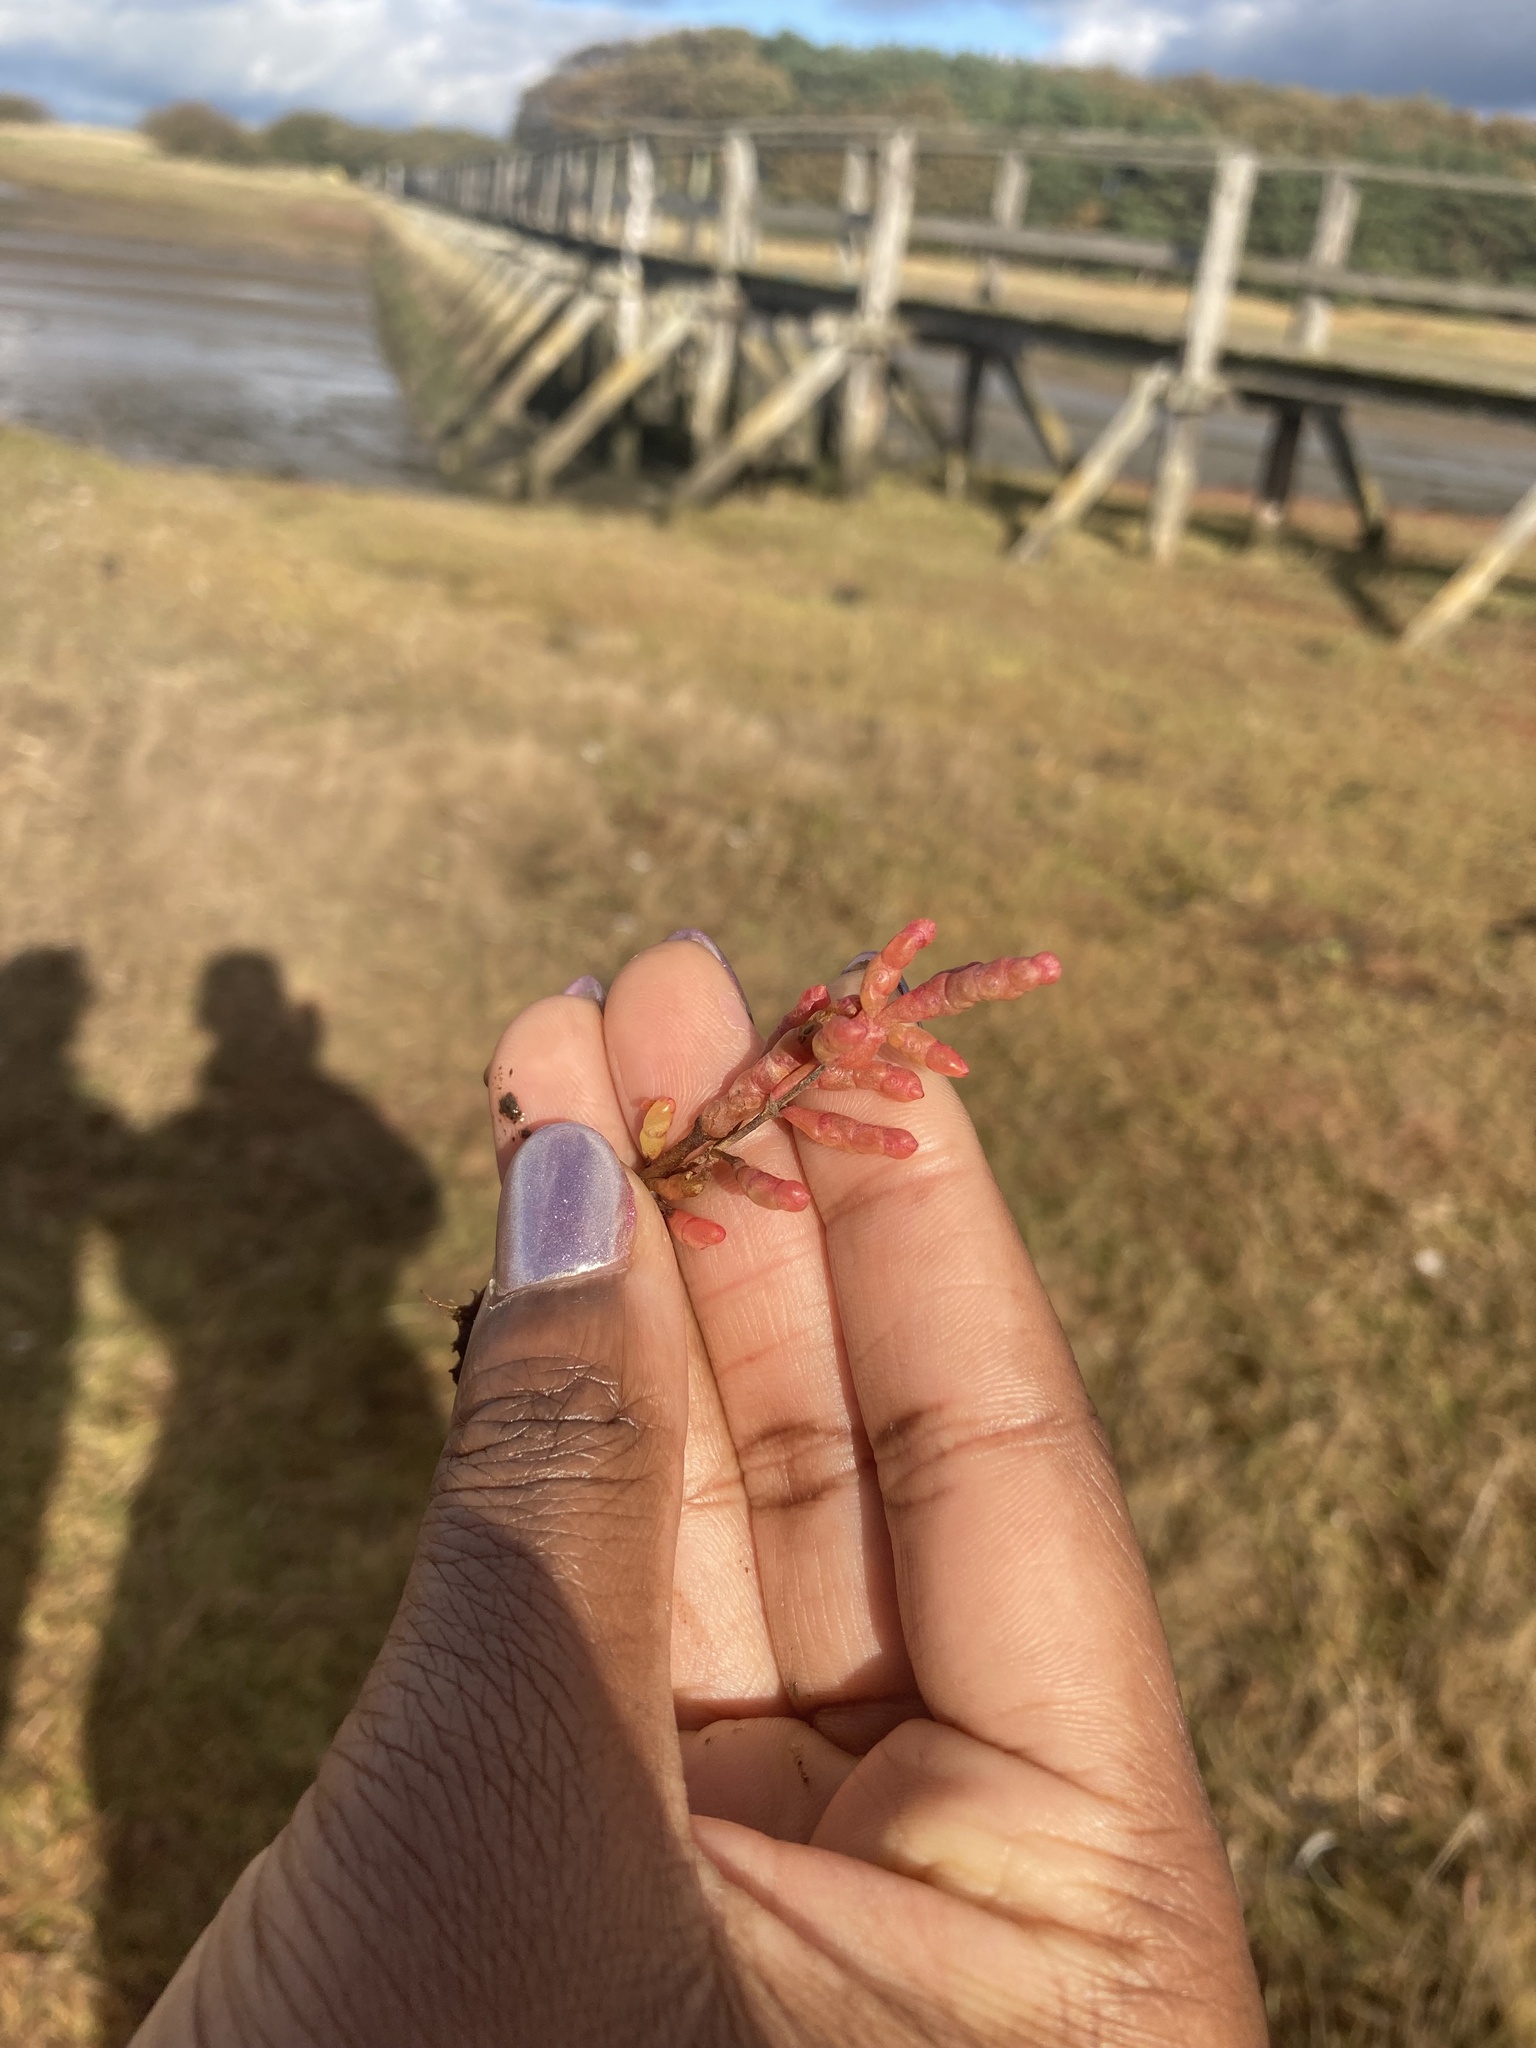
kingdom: Plantae
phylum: Tracheophyta
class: Magnoliopsida
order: Caryophyllales
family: Amaranthaceae
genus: Salicornia
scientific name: Salicornia europaea
